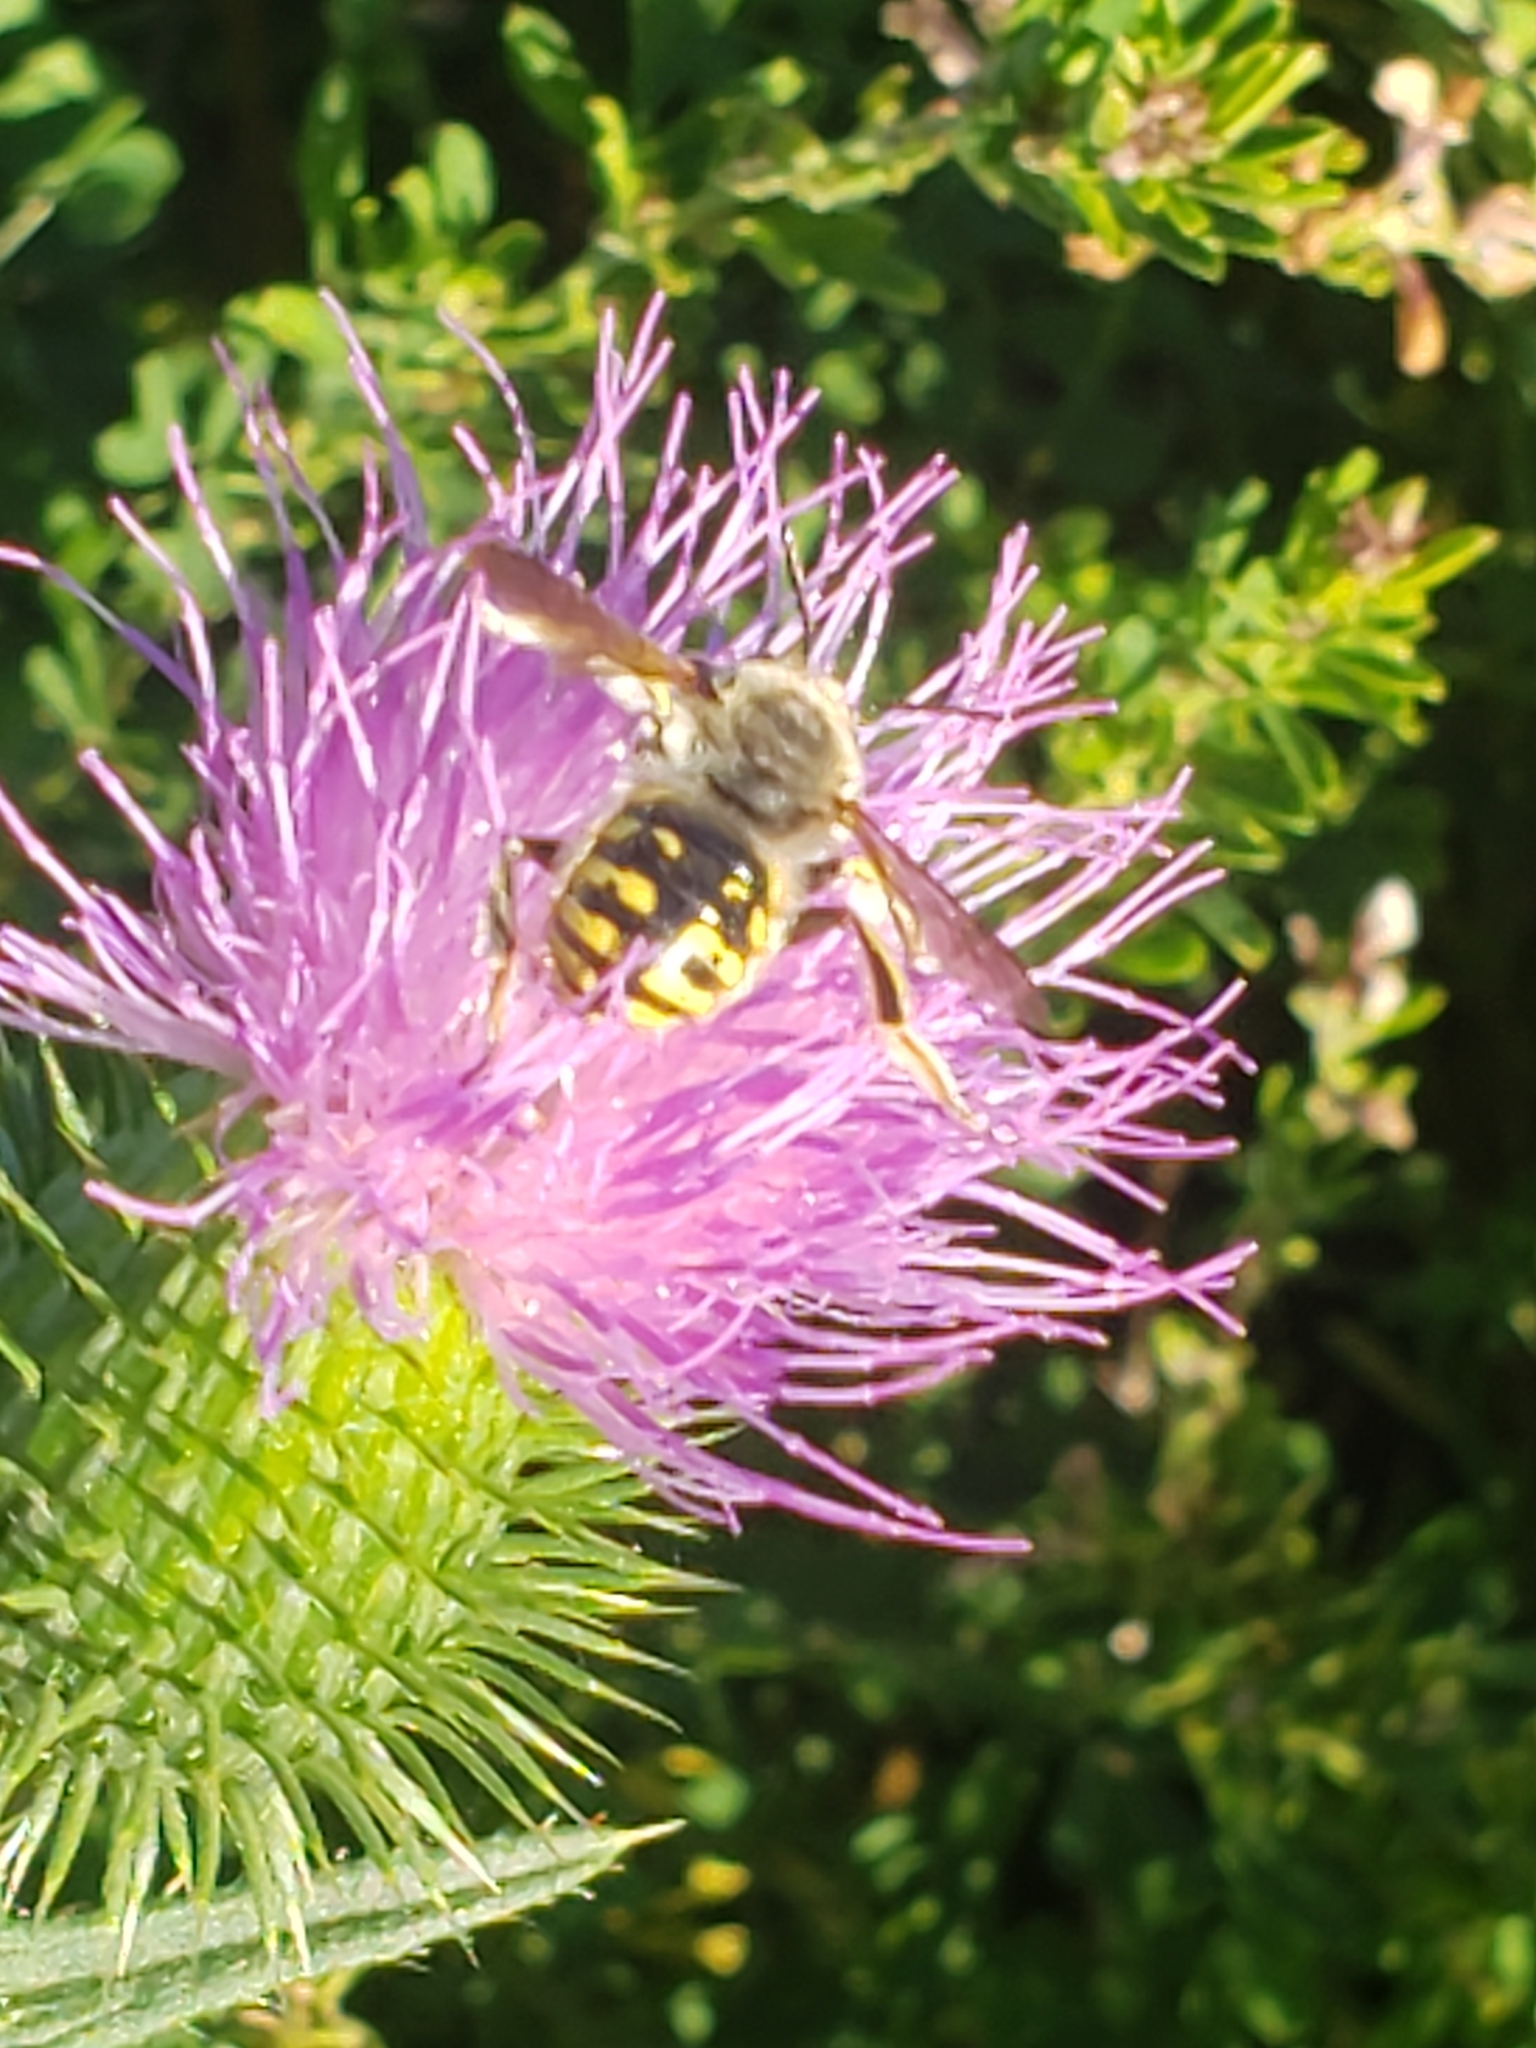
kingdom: Animalia
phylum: Arthropoda
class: Insecta
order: Hymenoptera
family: Megachilidae
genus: Anthidium
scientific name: Anthidium manicatum
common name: Wool carder bee
